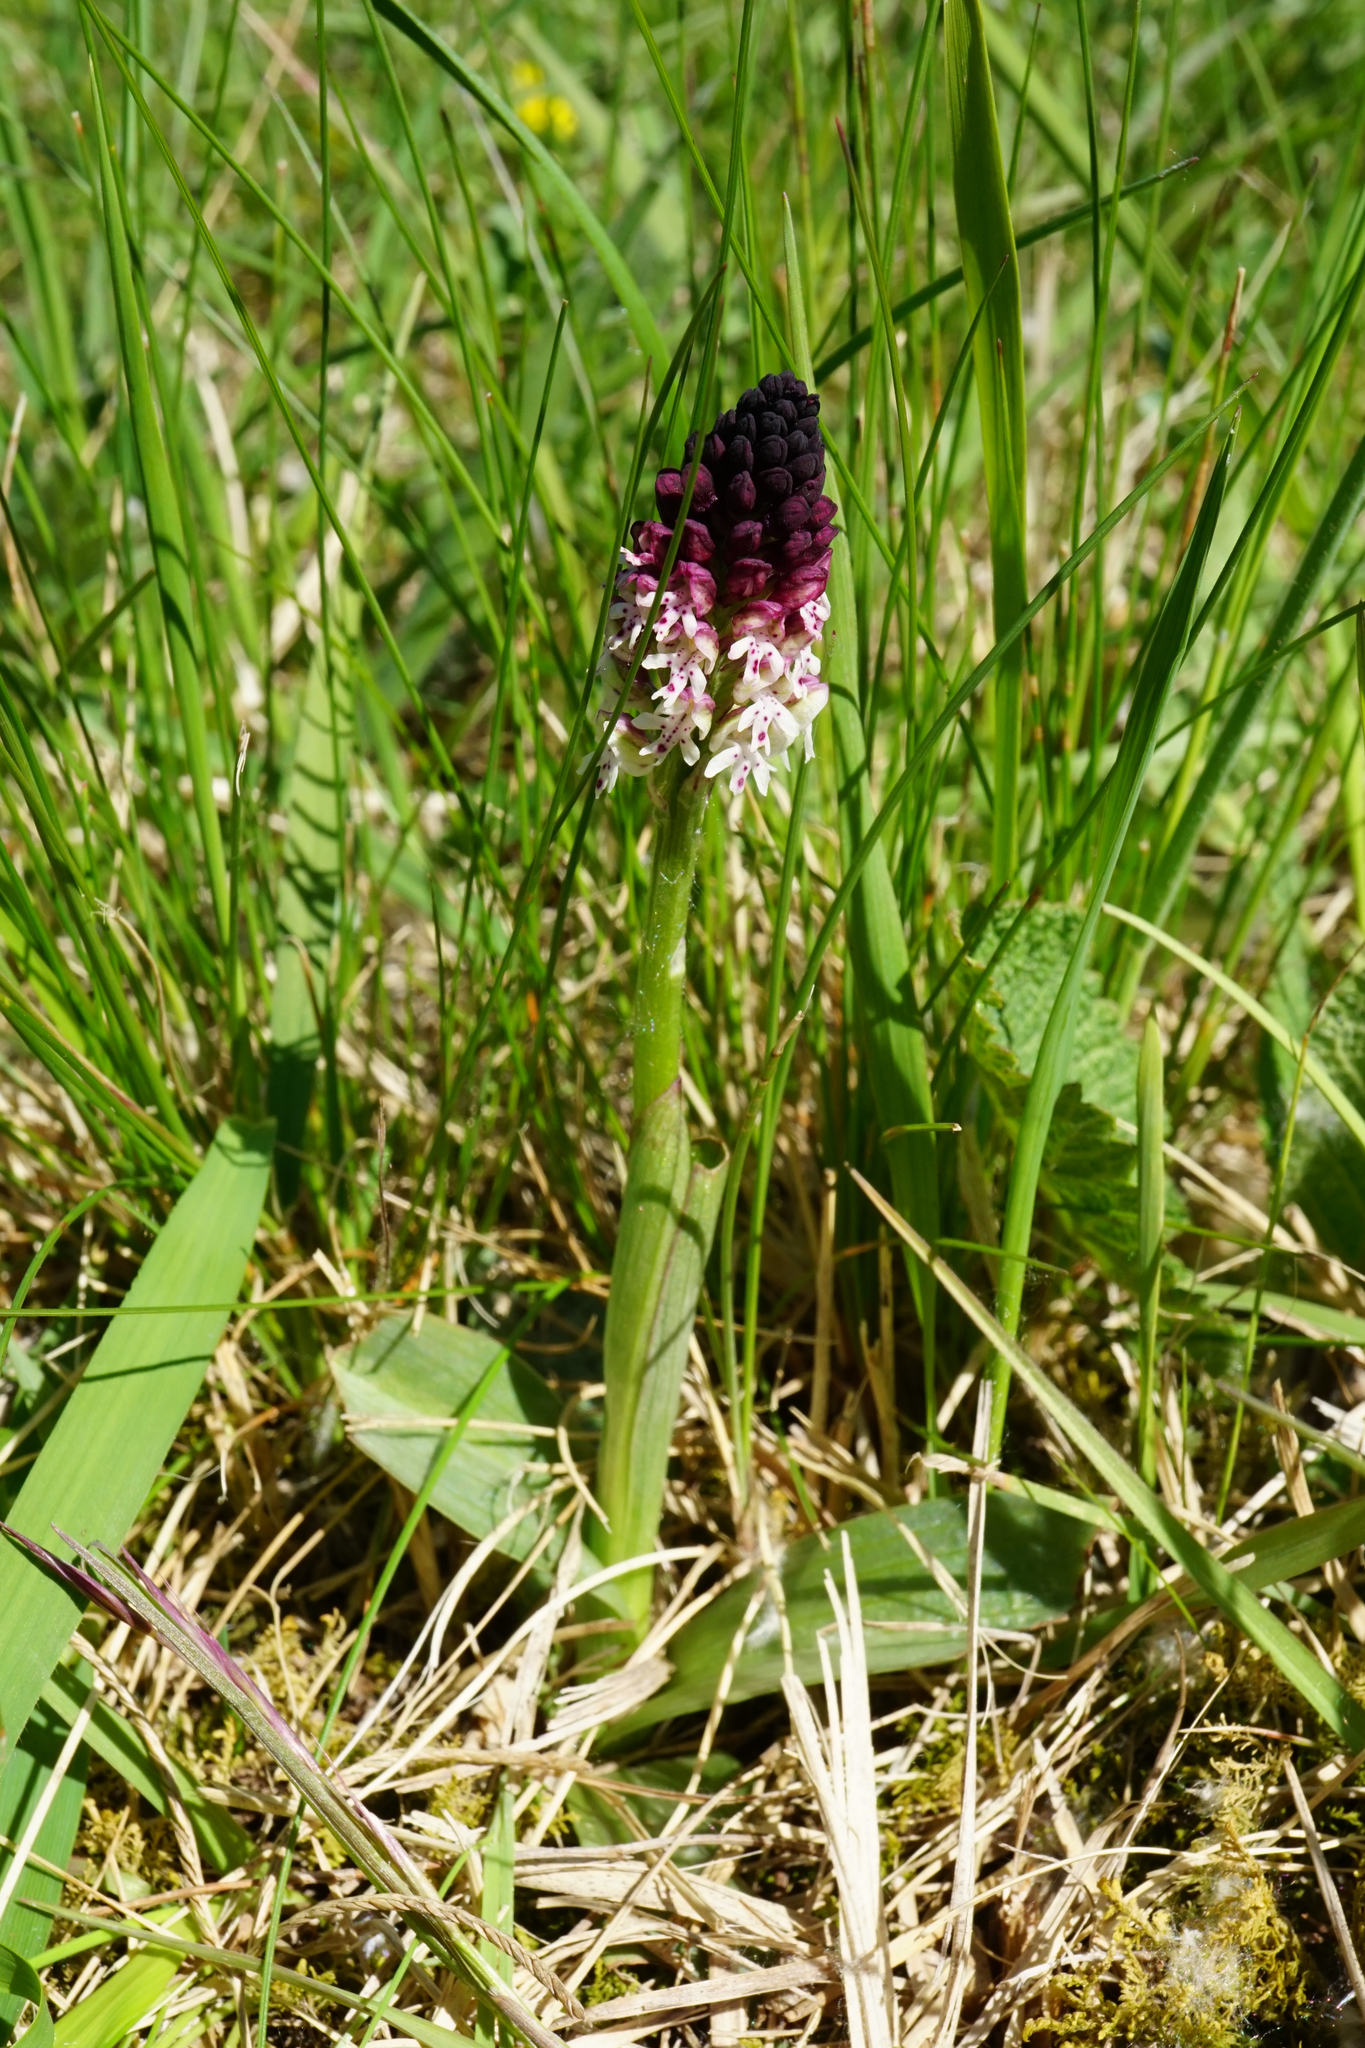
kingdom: Plantae
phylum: Tracheophyta
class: Liliopsida
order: Asparagales
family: Orchidaceae
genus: Neotinea
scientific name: Neotinea ustulata
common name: Burnt orchid
